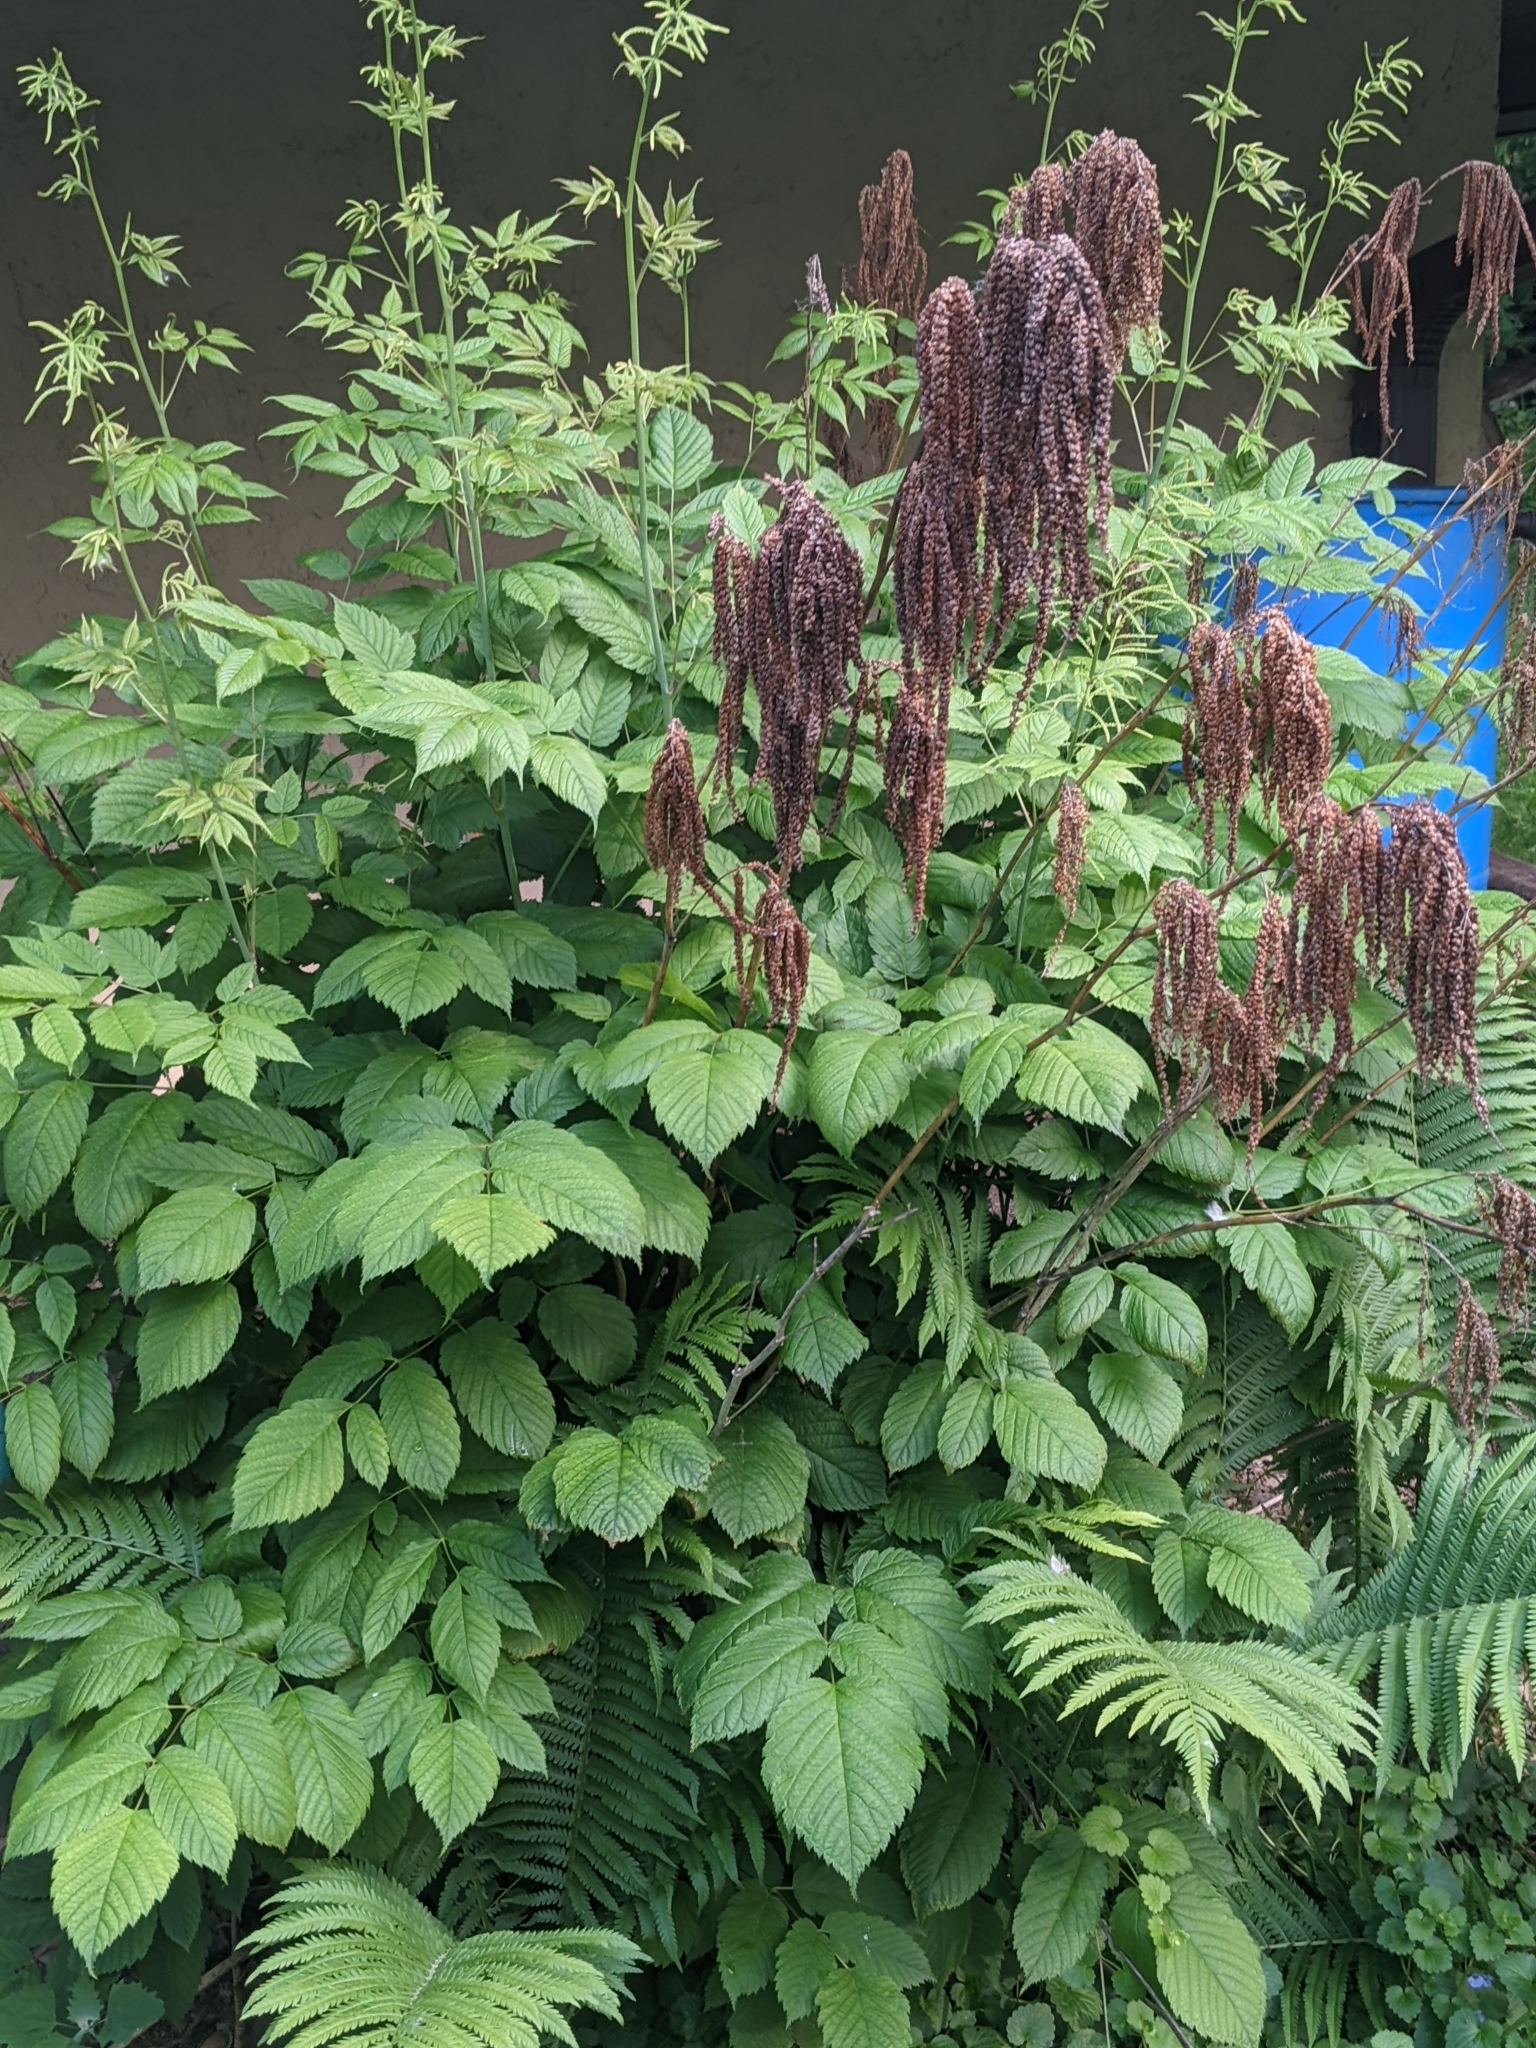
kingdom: Plantae
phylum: Tracheophyta
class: Magnoliopsida
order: Rosales
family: Rosaceae
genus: Aruncus
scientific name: Aruncus dioicus
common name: Buck's-beard
